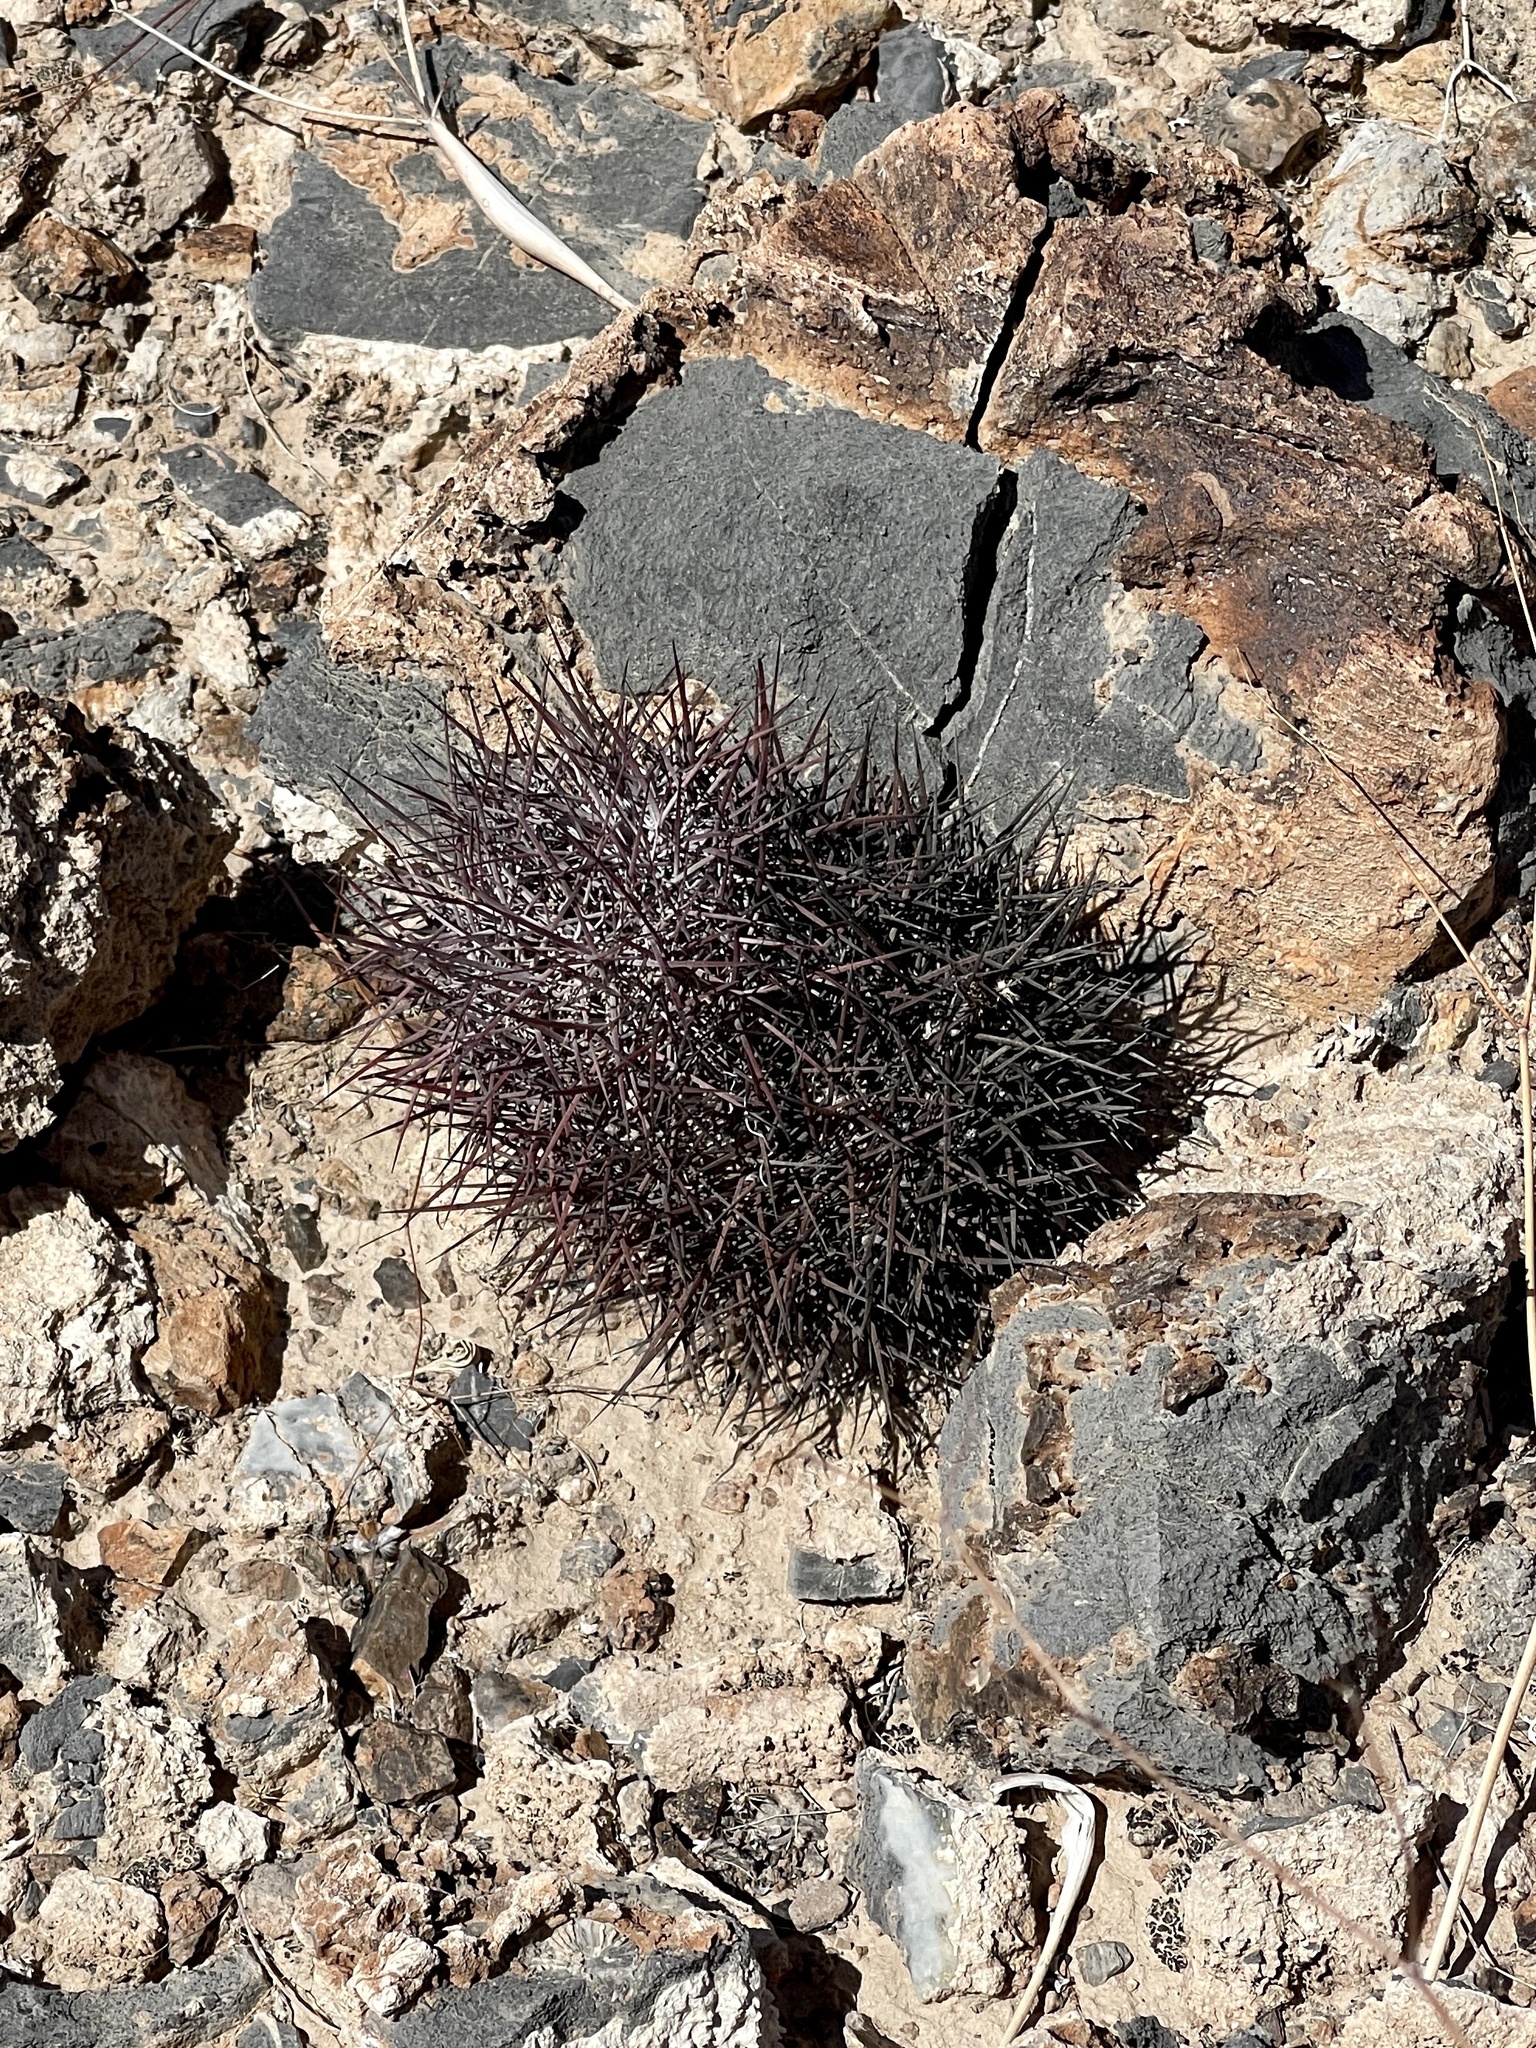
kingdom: Plantae
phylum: Tracheophyta
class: Magnoliopsida
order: Caryophyllales
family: Cactaceae
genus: Sclerocactus
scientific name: Sclerocactus johnsonii
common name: Eight-spine fishhook cactus
